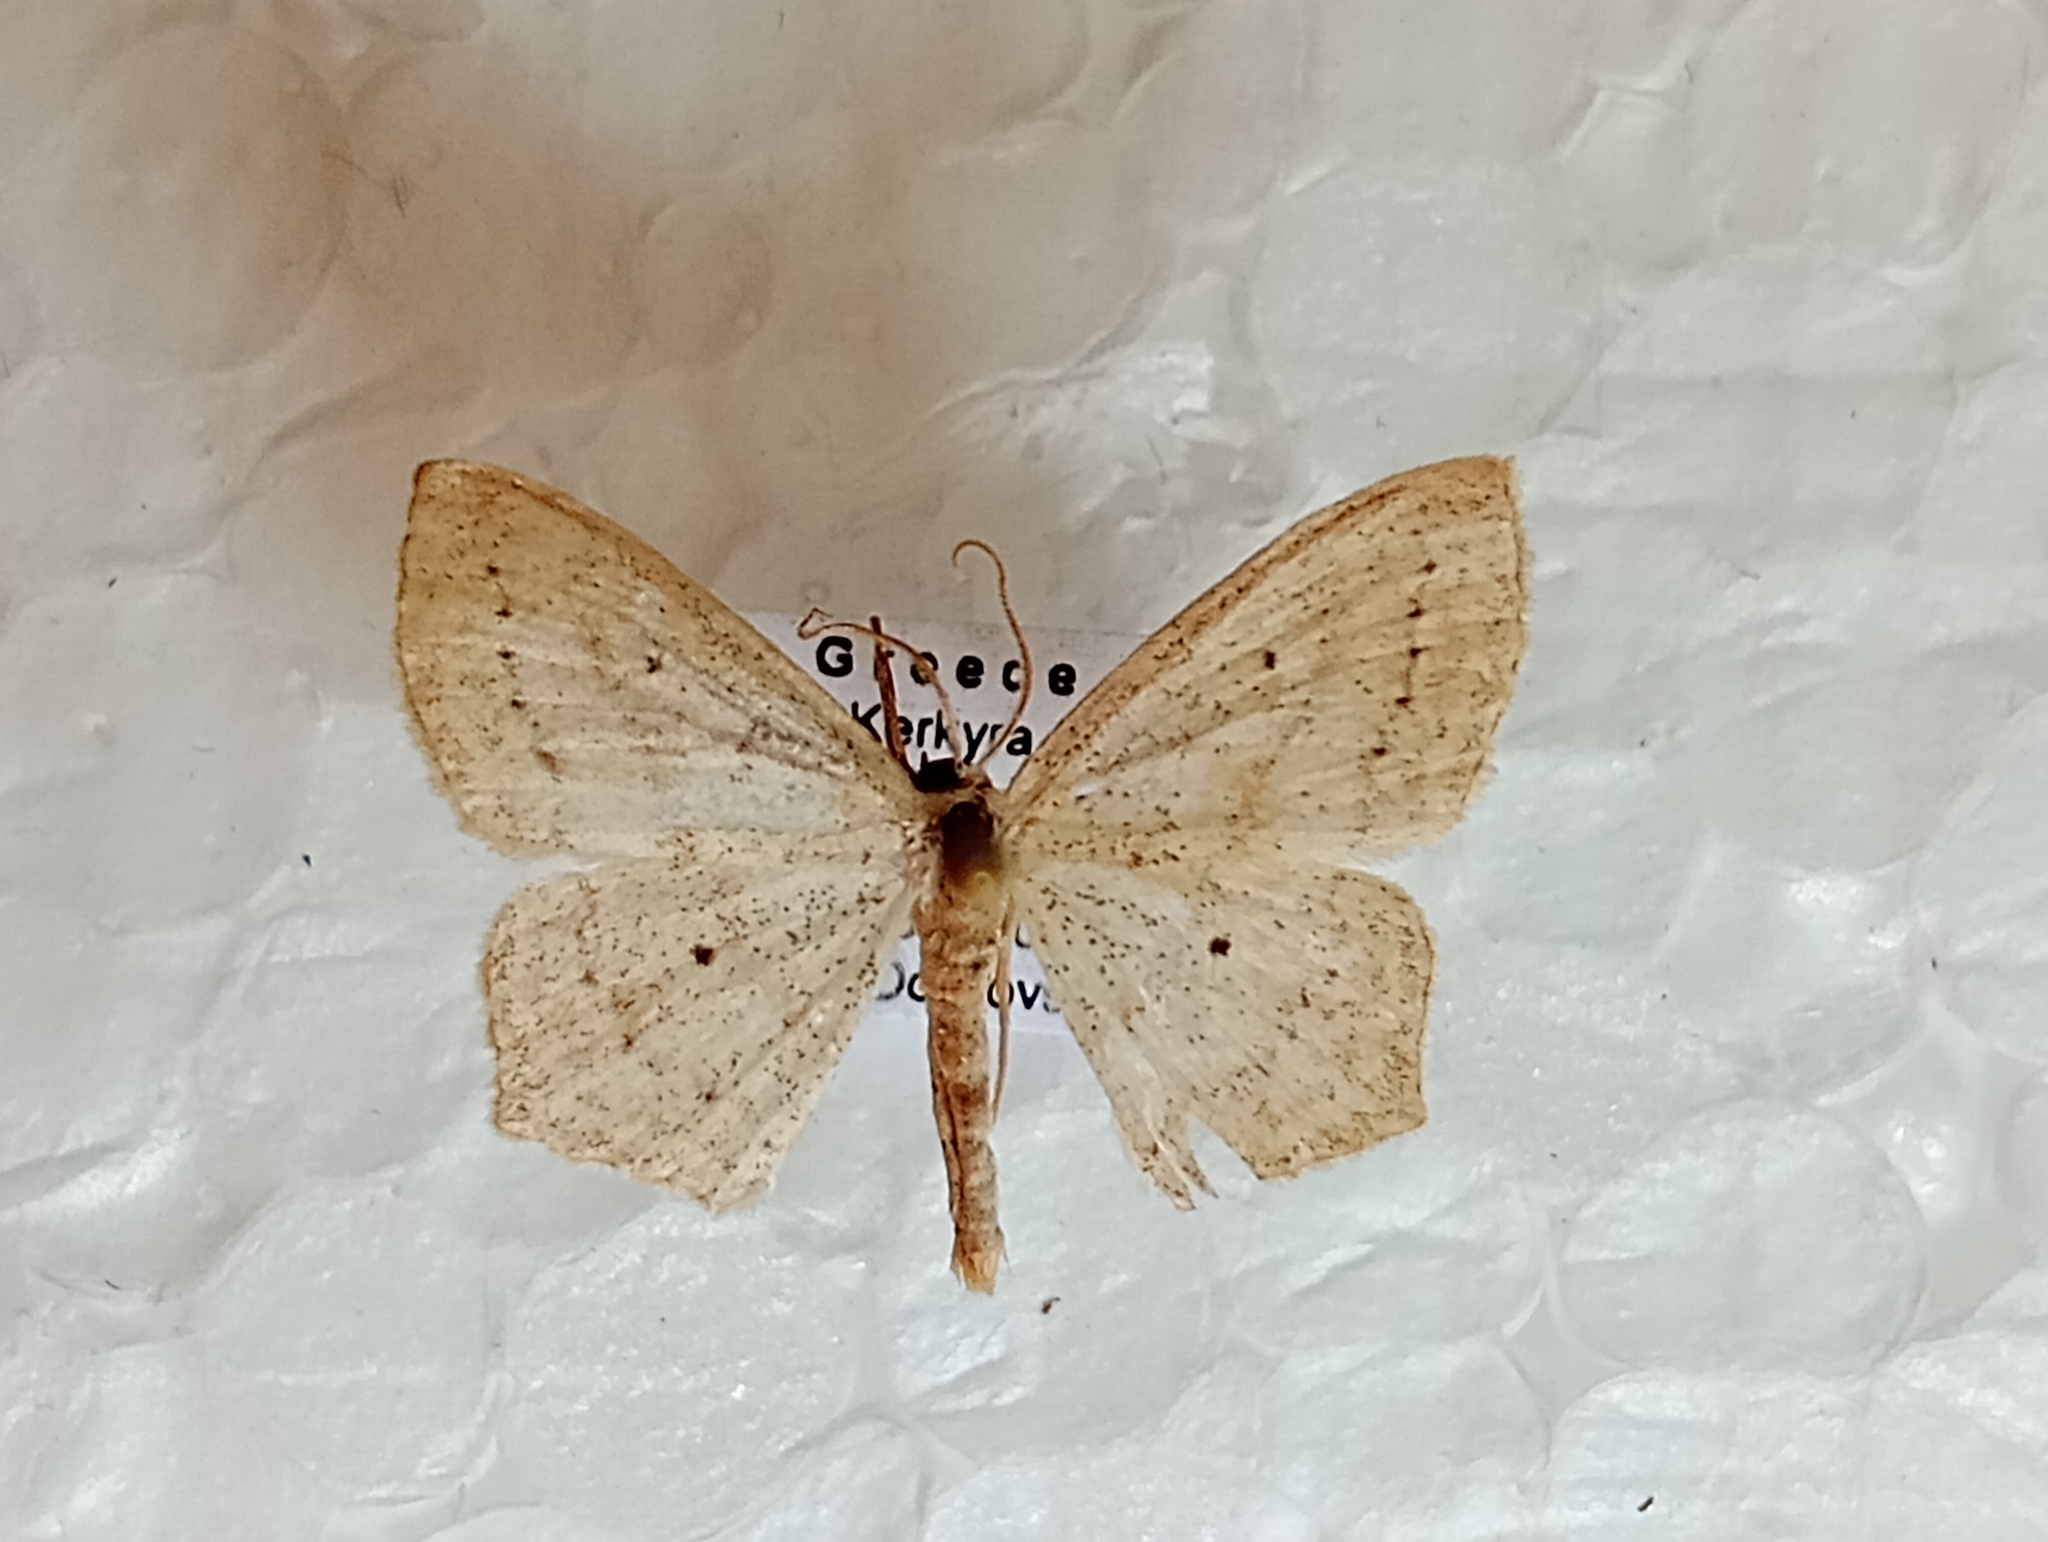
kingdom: Animalia
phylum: Arthropoda
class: Insecta
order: Lepidoptera
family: Geometridae
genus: Scopula
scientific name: Scopula flaccidaria
